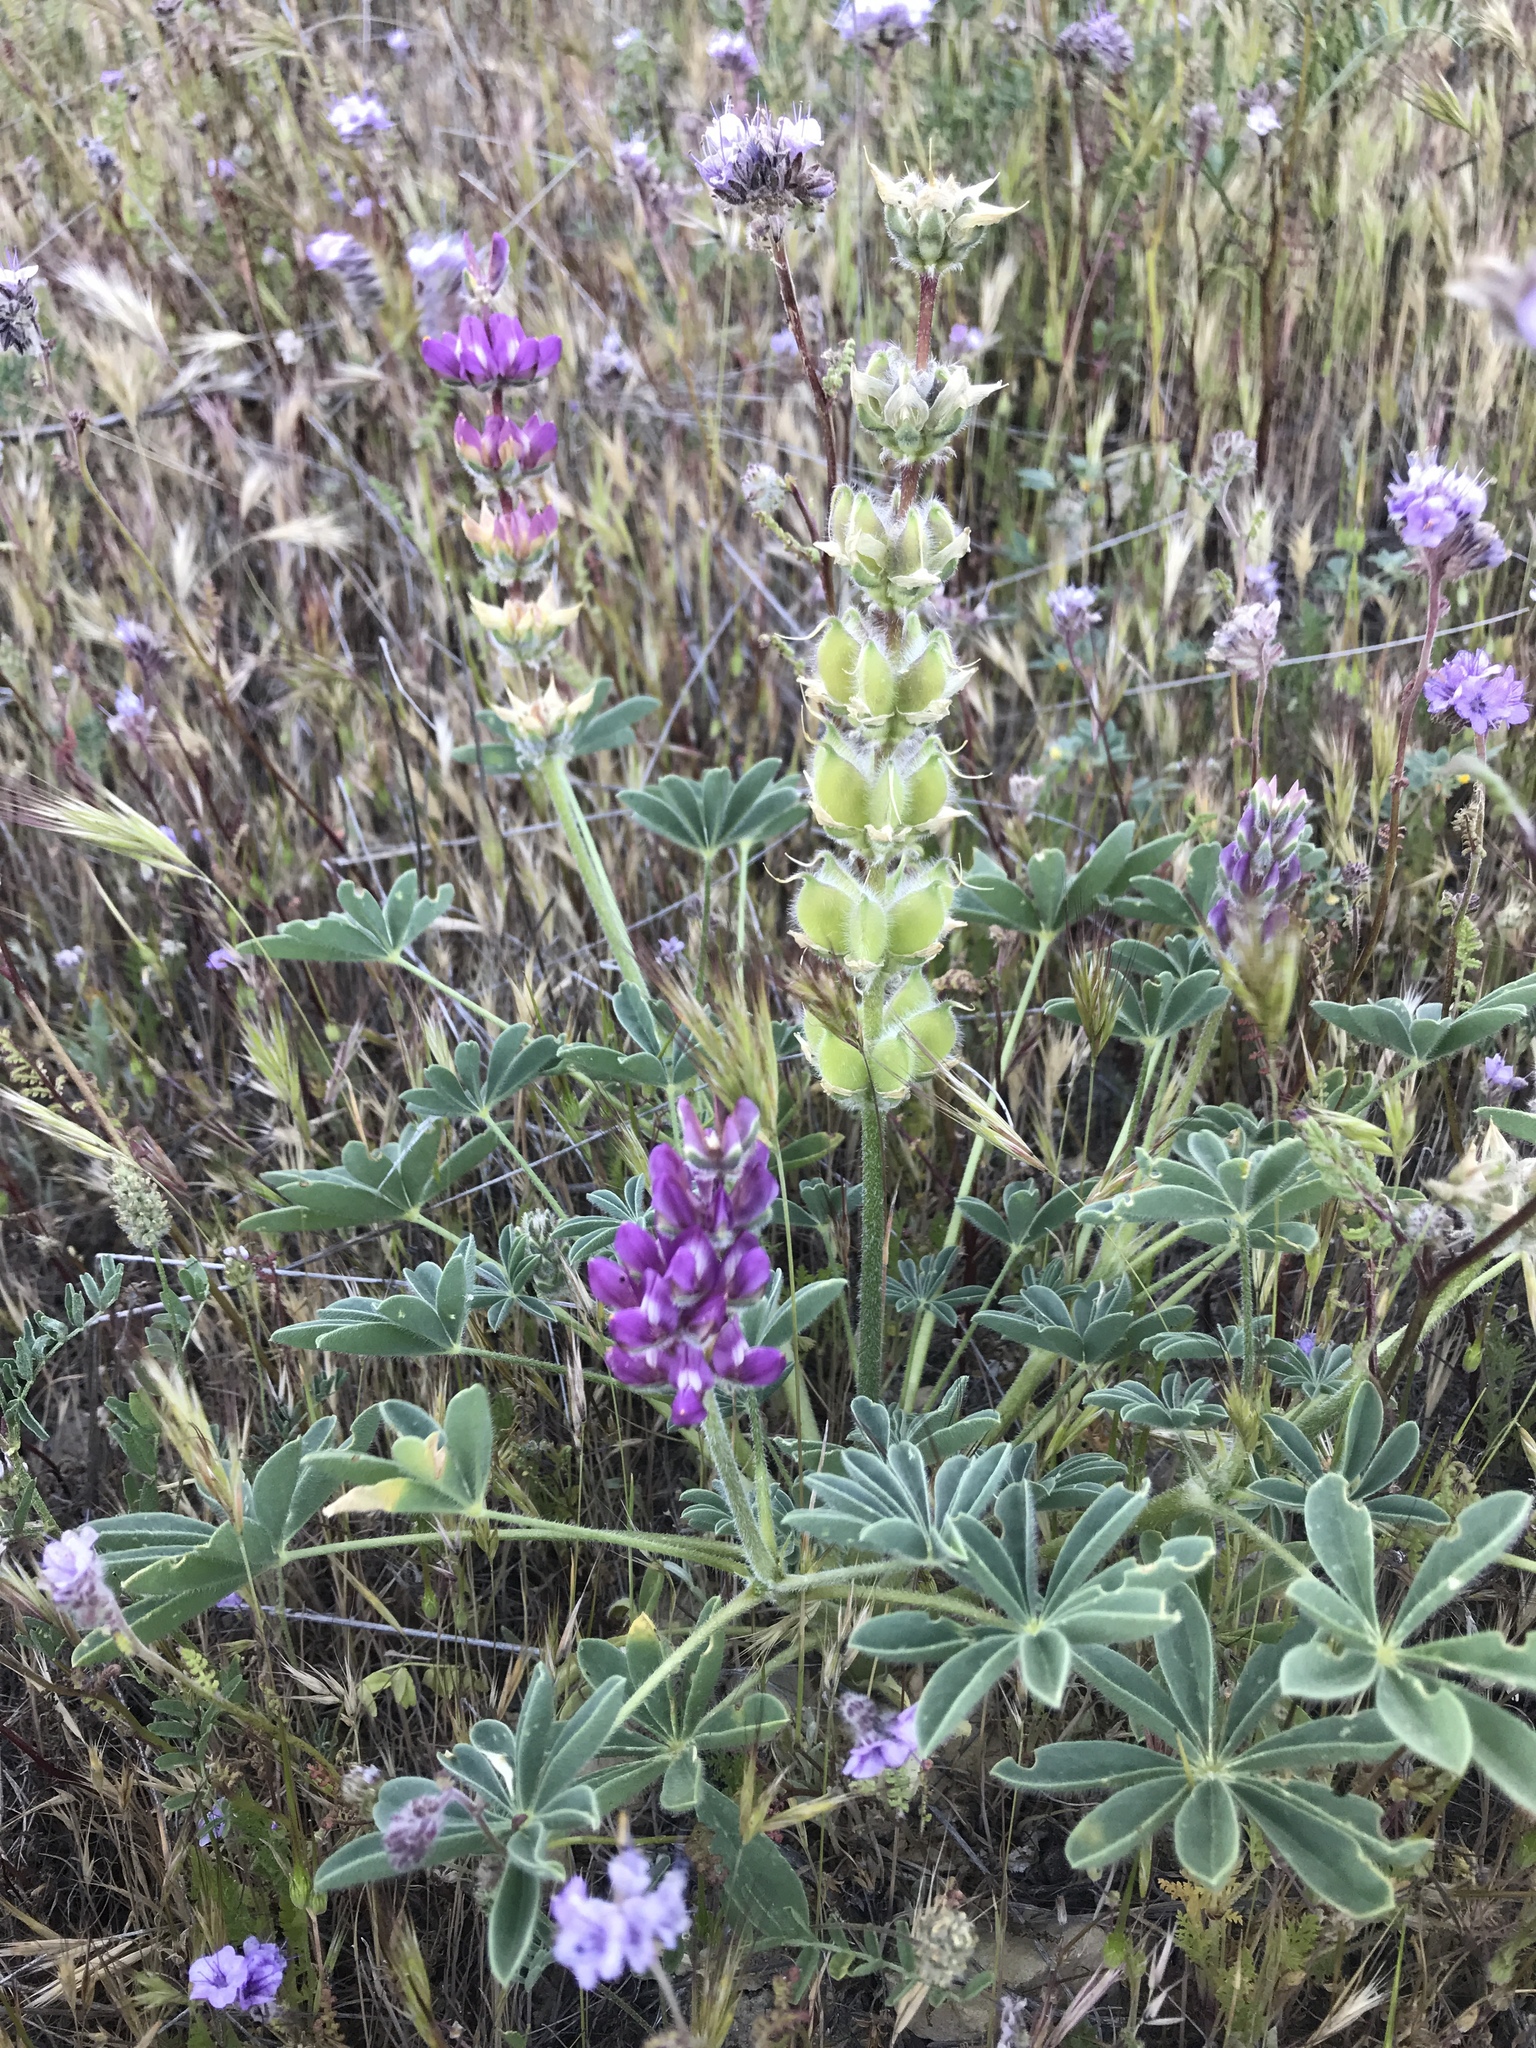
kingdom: Plantae
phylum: Tracheophyta
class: Magnoliopsida
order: Fabales
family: Fabaceae
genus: Lupinus
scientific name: Lupinus microcarpus
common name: Chick lupine
